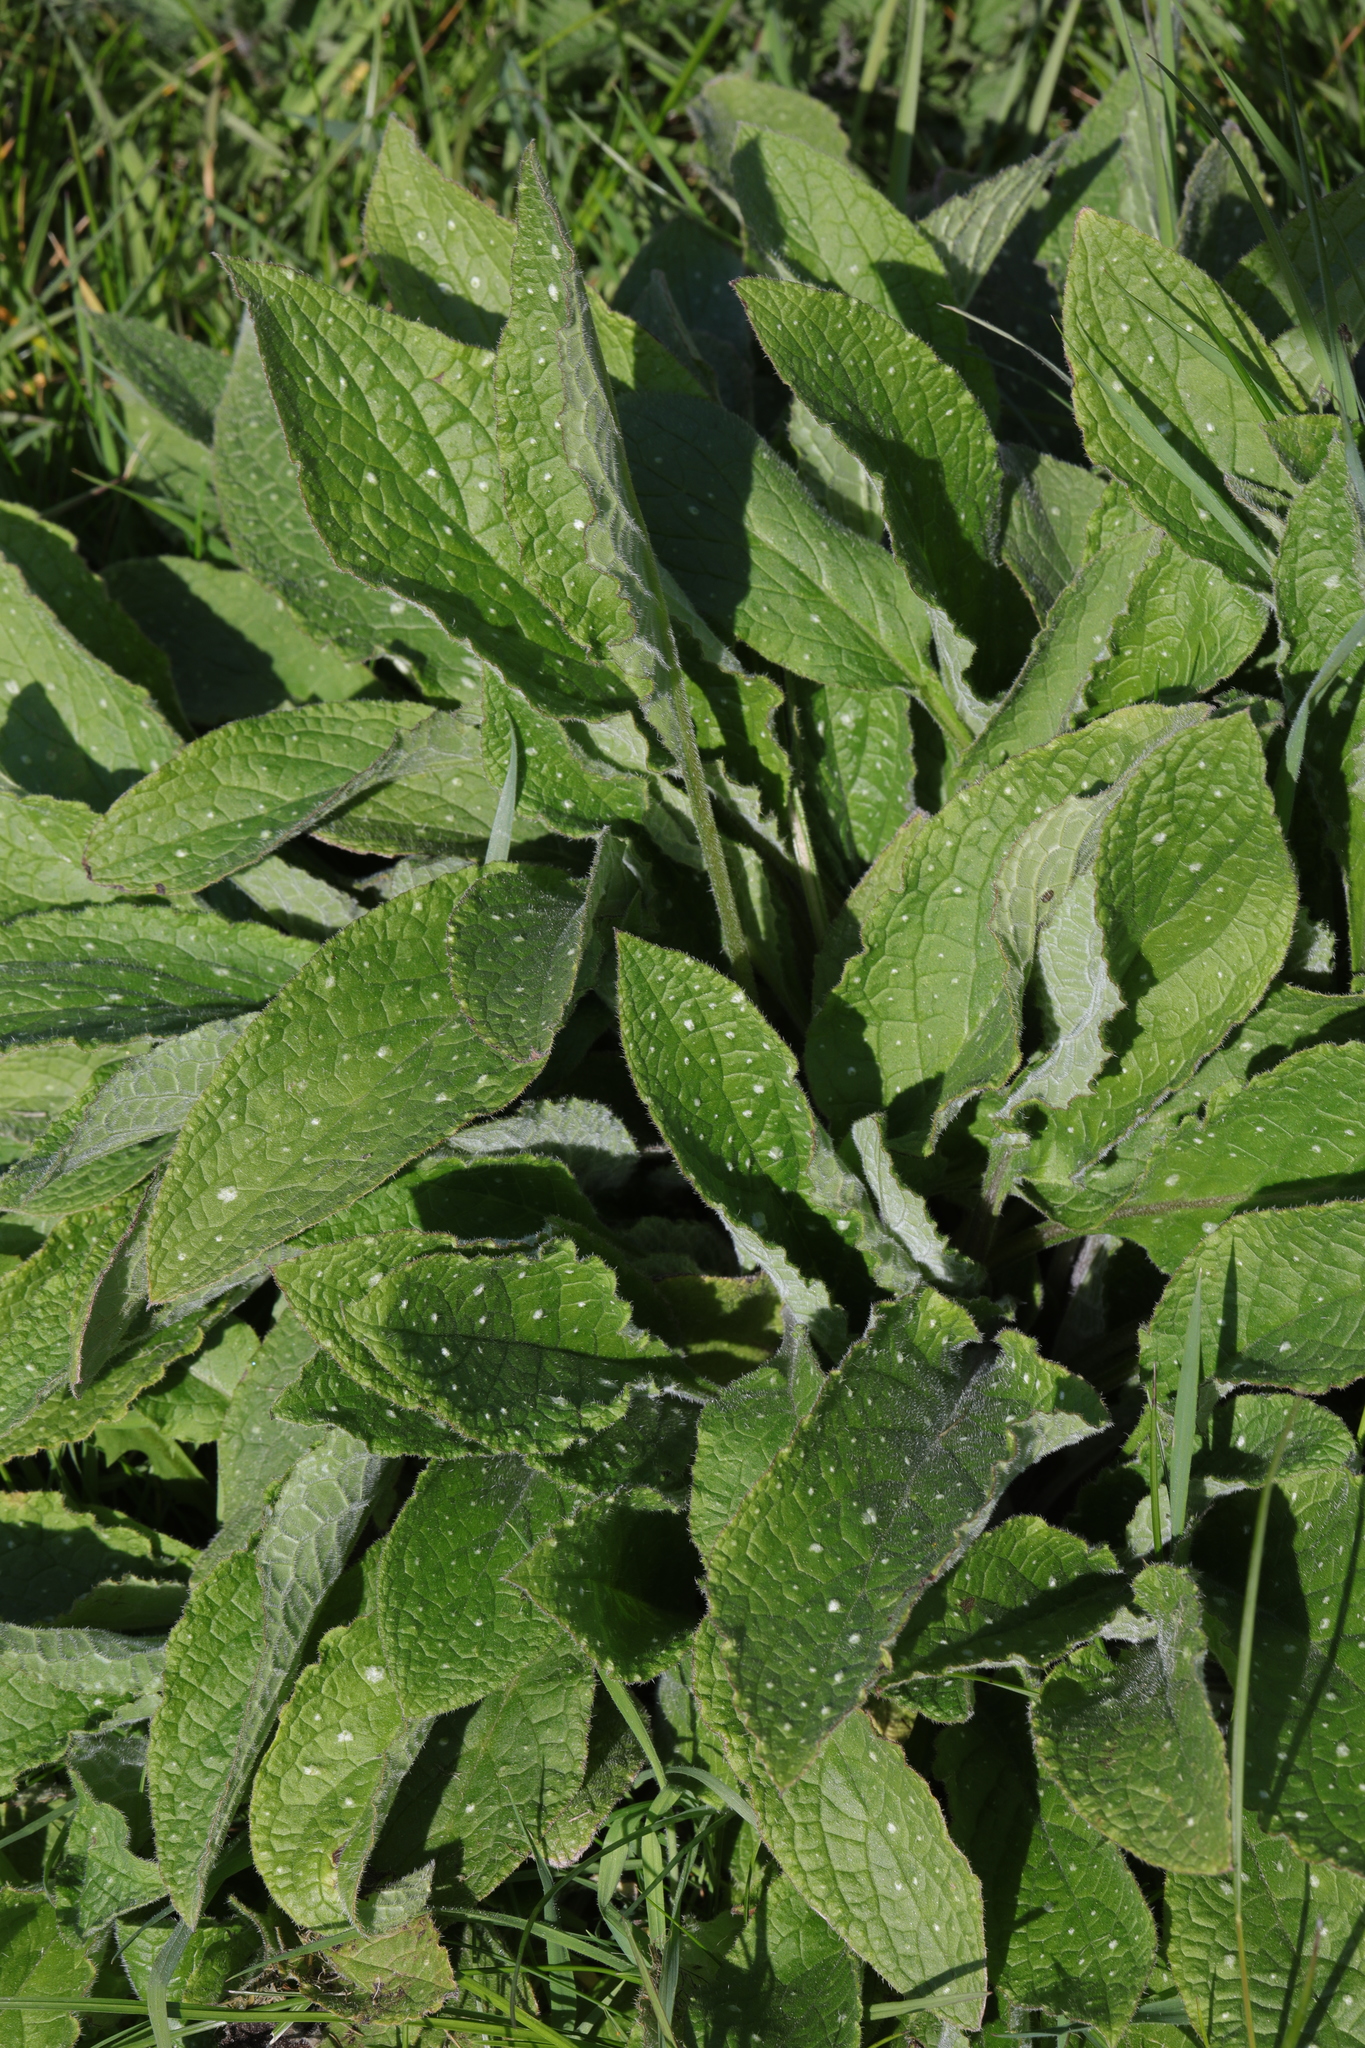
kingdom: Plantae
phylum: Tracheophyta
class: Magnoliopsida
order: Boraginales
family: Boraginaceae
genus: Pentaglottis
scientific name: Pentaglottis sempervirens
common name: Green alkanet
